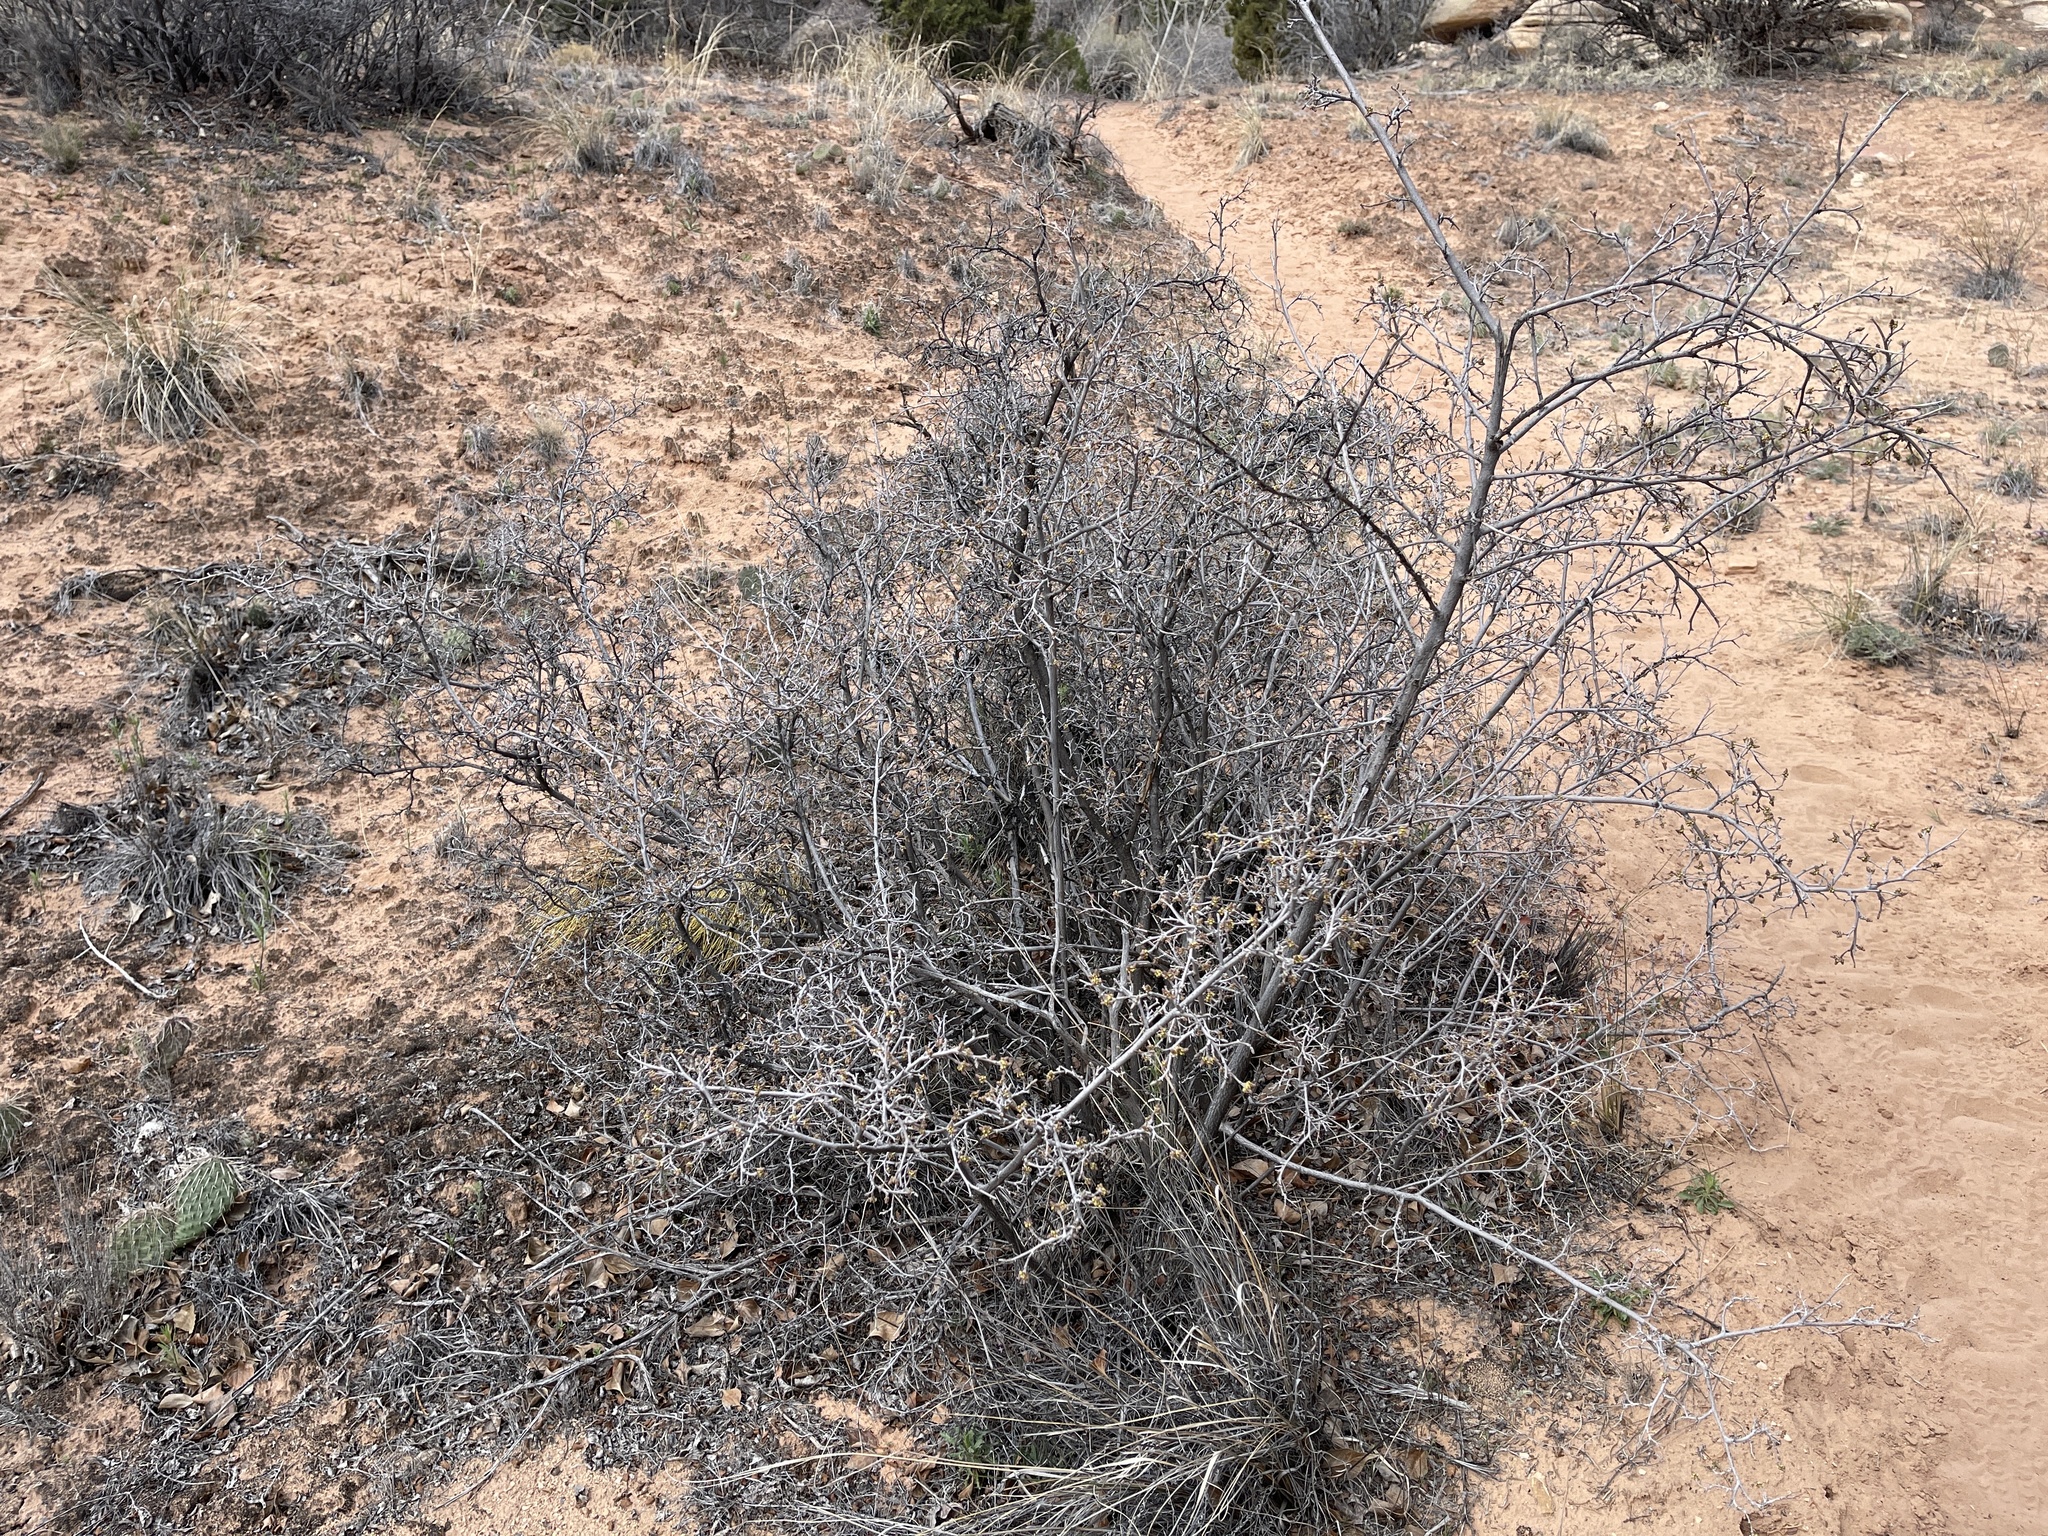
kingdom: Plantae
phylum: Tracheophyta
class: Magnoliopsida
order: Sapindales
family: Anacardiaceae
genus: Rhus
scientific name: Rhus aromatica
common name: Aromatic sumac
